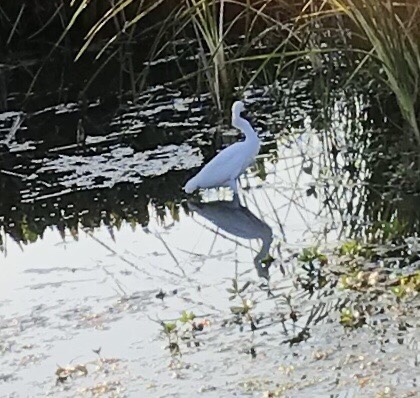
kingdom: Animalia
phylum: Chordata
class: Aves
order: Pelecaniformes
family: Ardeidae
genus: Egretta
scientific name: Egretta thula
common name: Snowy egret
